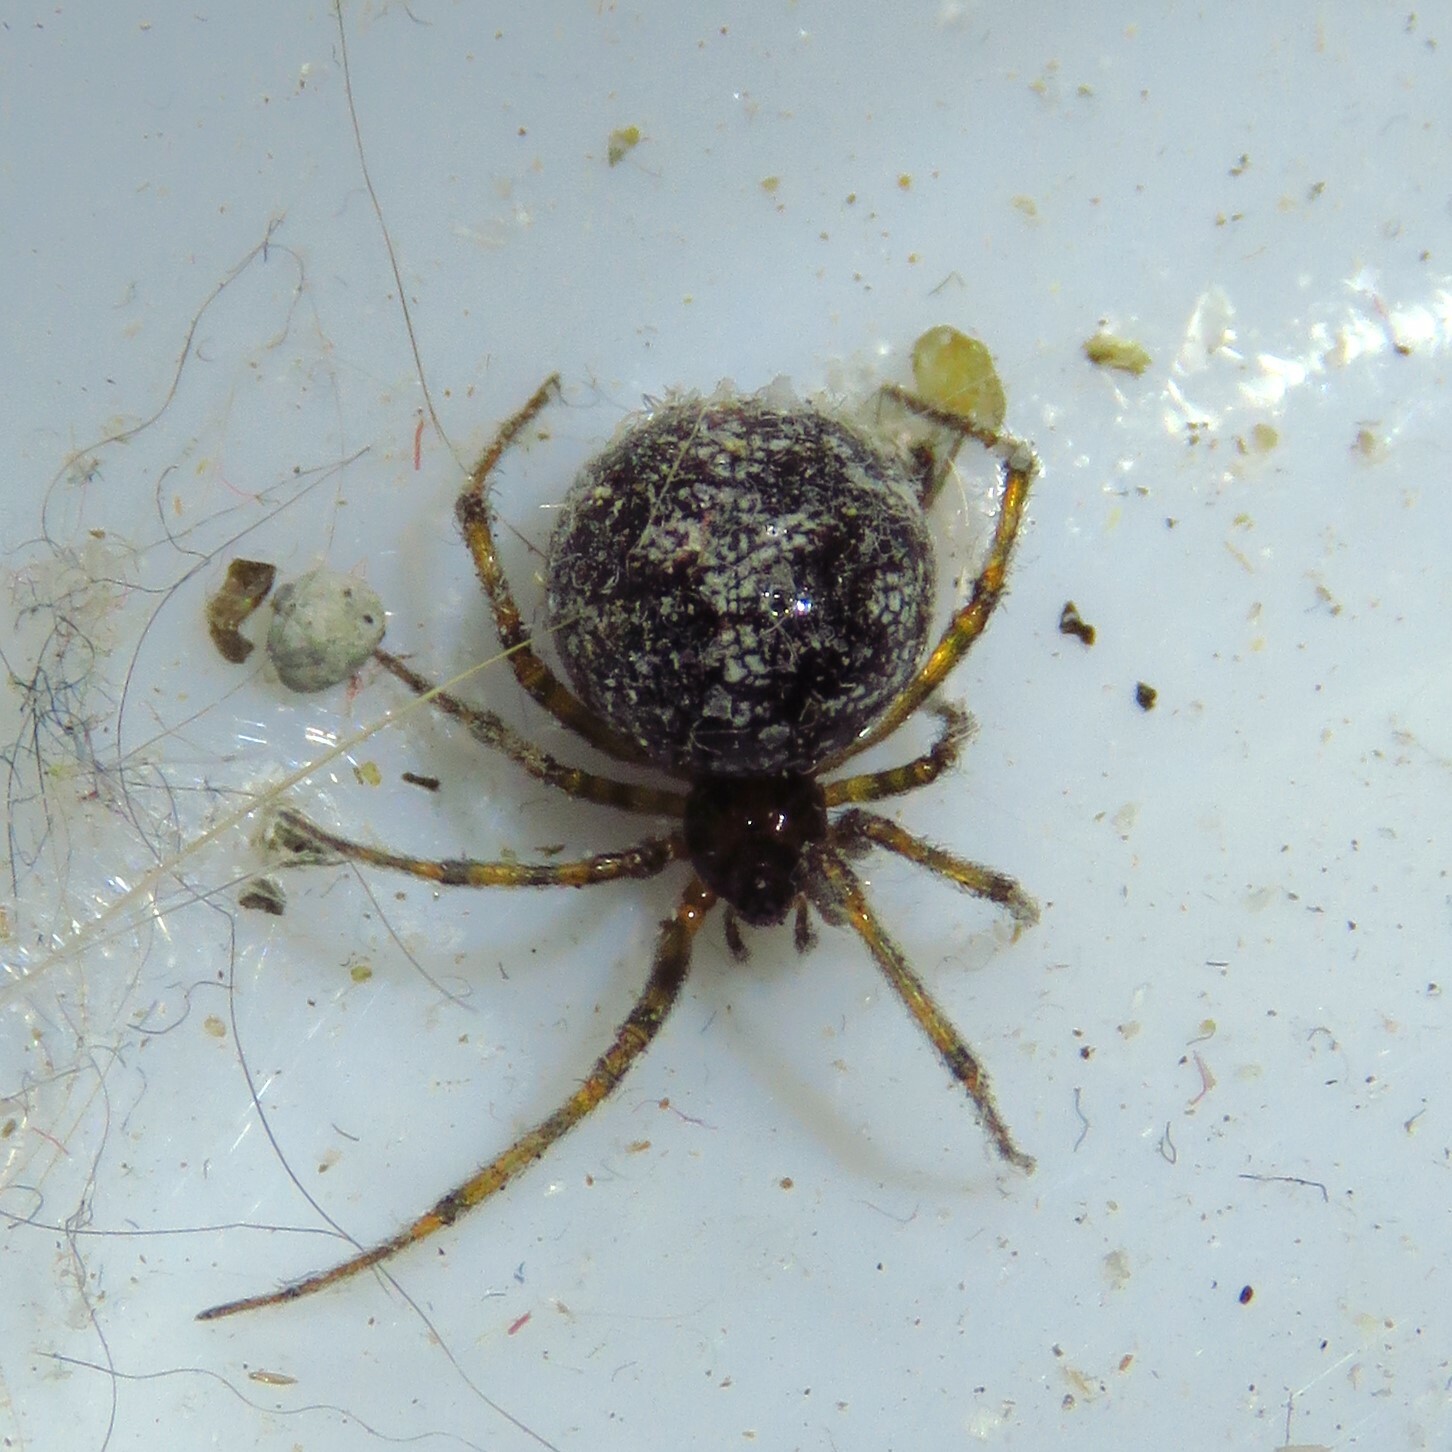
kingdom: Animalia
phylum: Arthropoda
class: Arachnida
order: Araneae
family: Theridiidae
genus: Steatoda
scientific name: Steatoda triangulosa
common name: Triangulate bud spider
